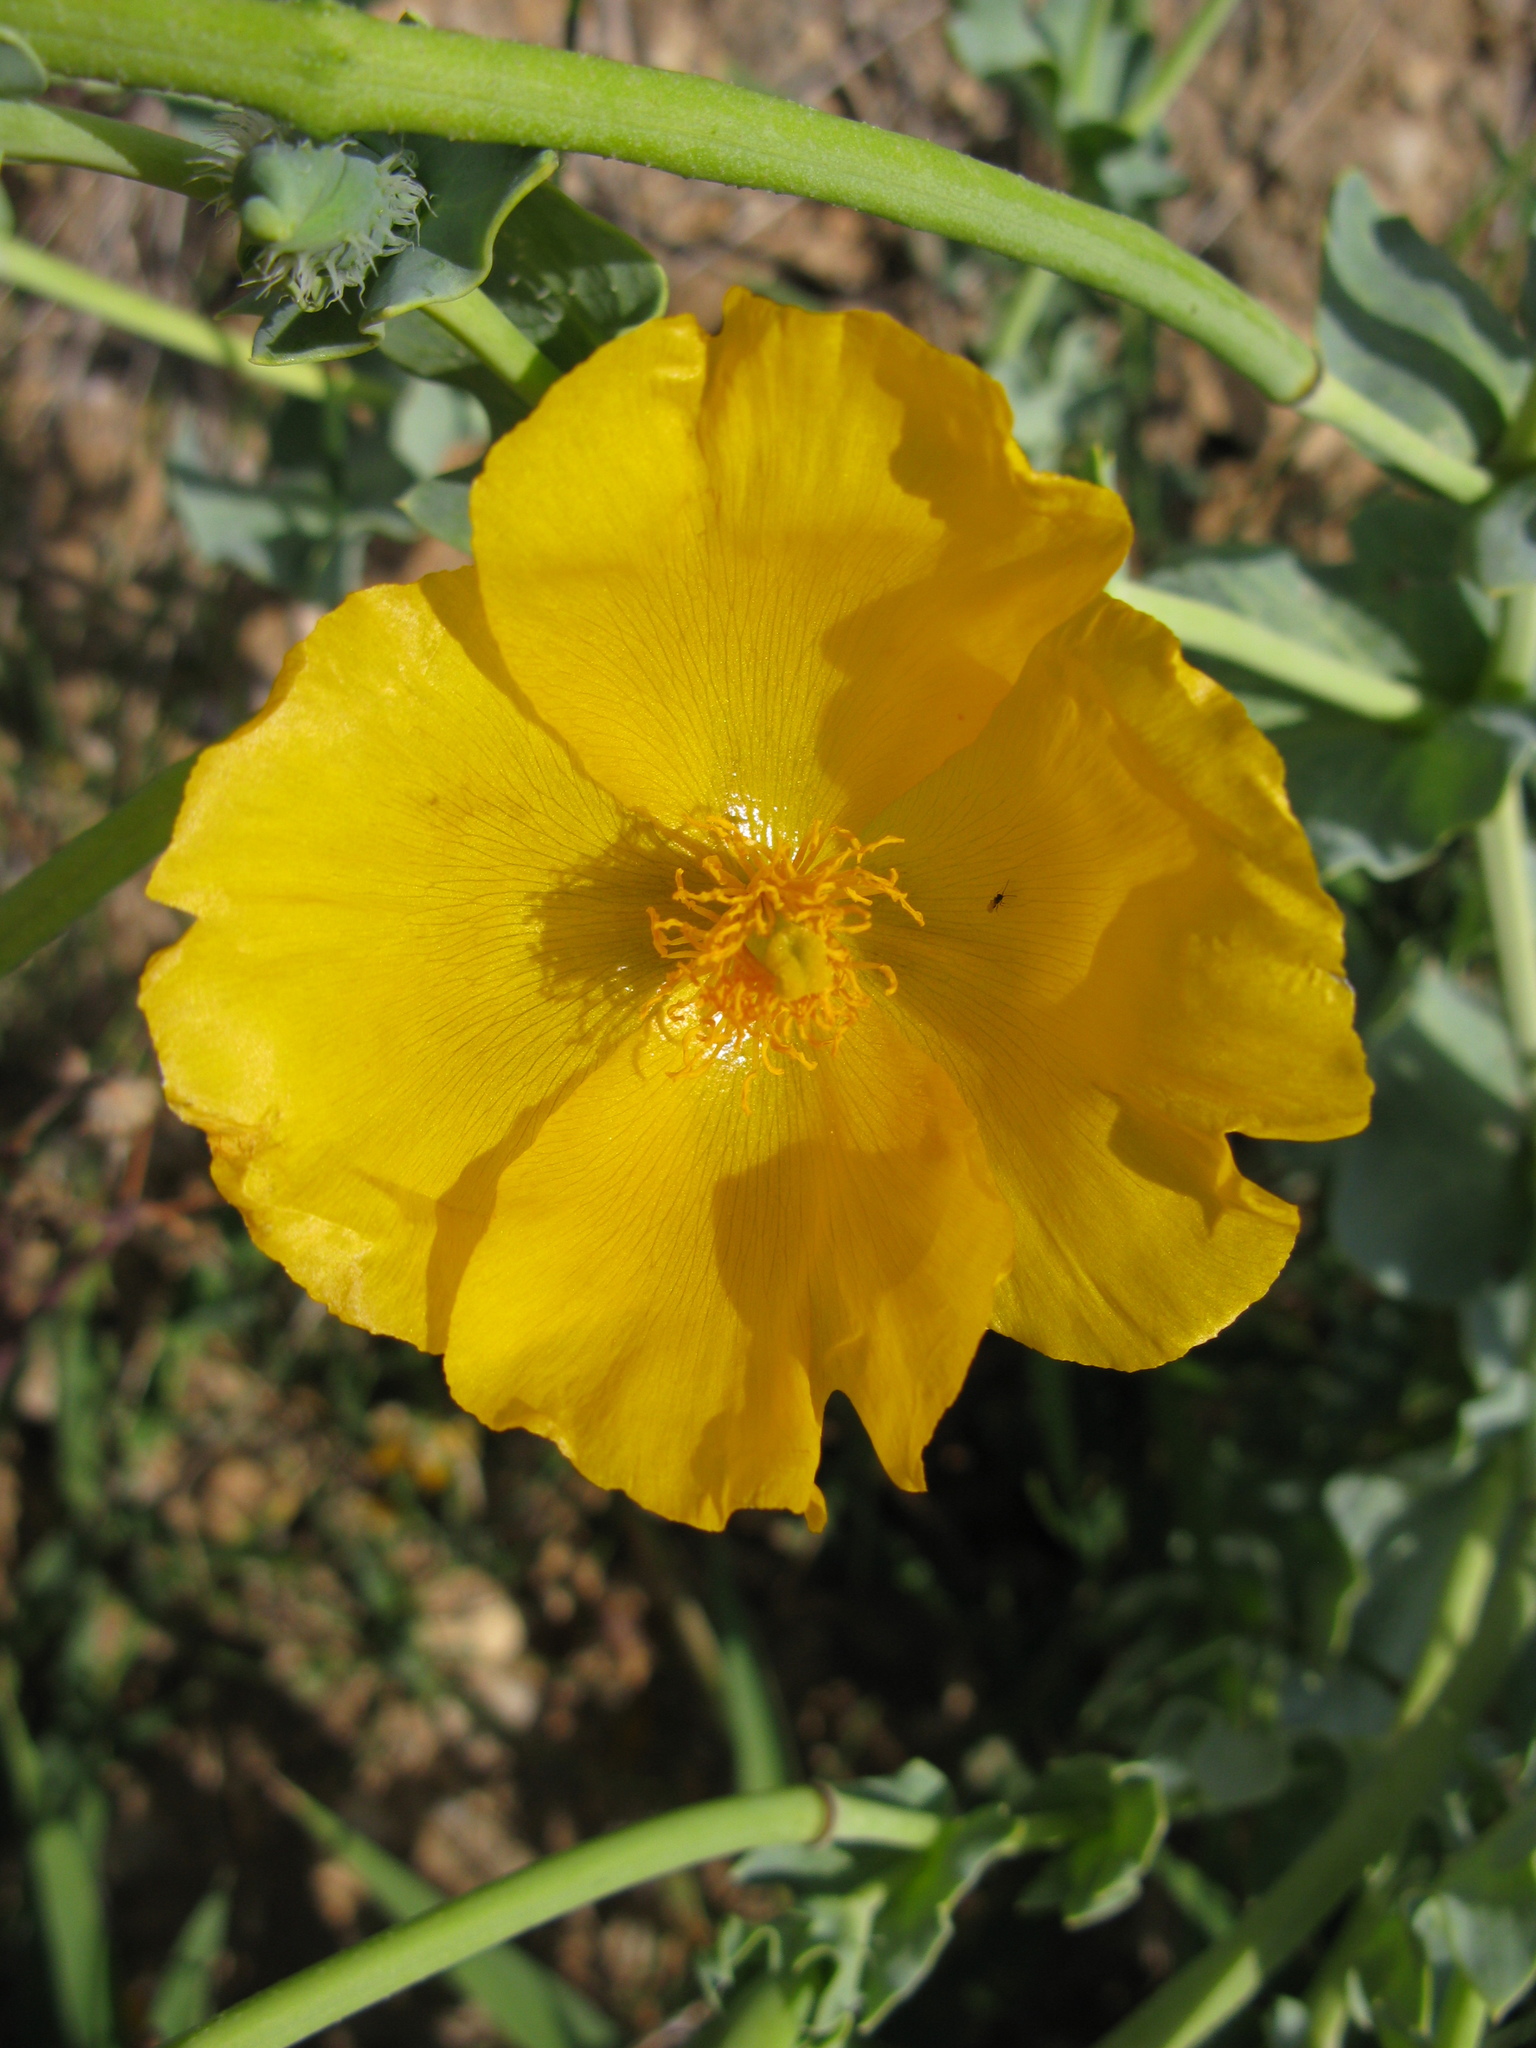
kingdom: Plantae
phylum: Tracheophyta
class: Magnoliopsida
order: Ranunculales
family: Papaveraceae
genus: Glaucium
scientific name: Glaucium flavum
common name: Yellow horned-poppy
